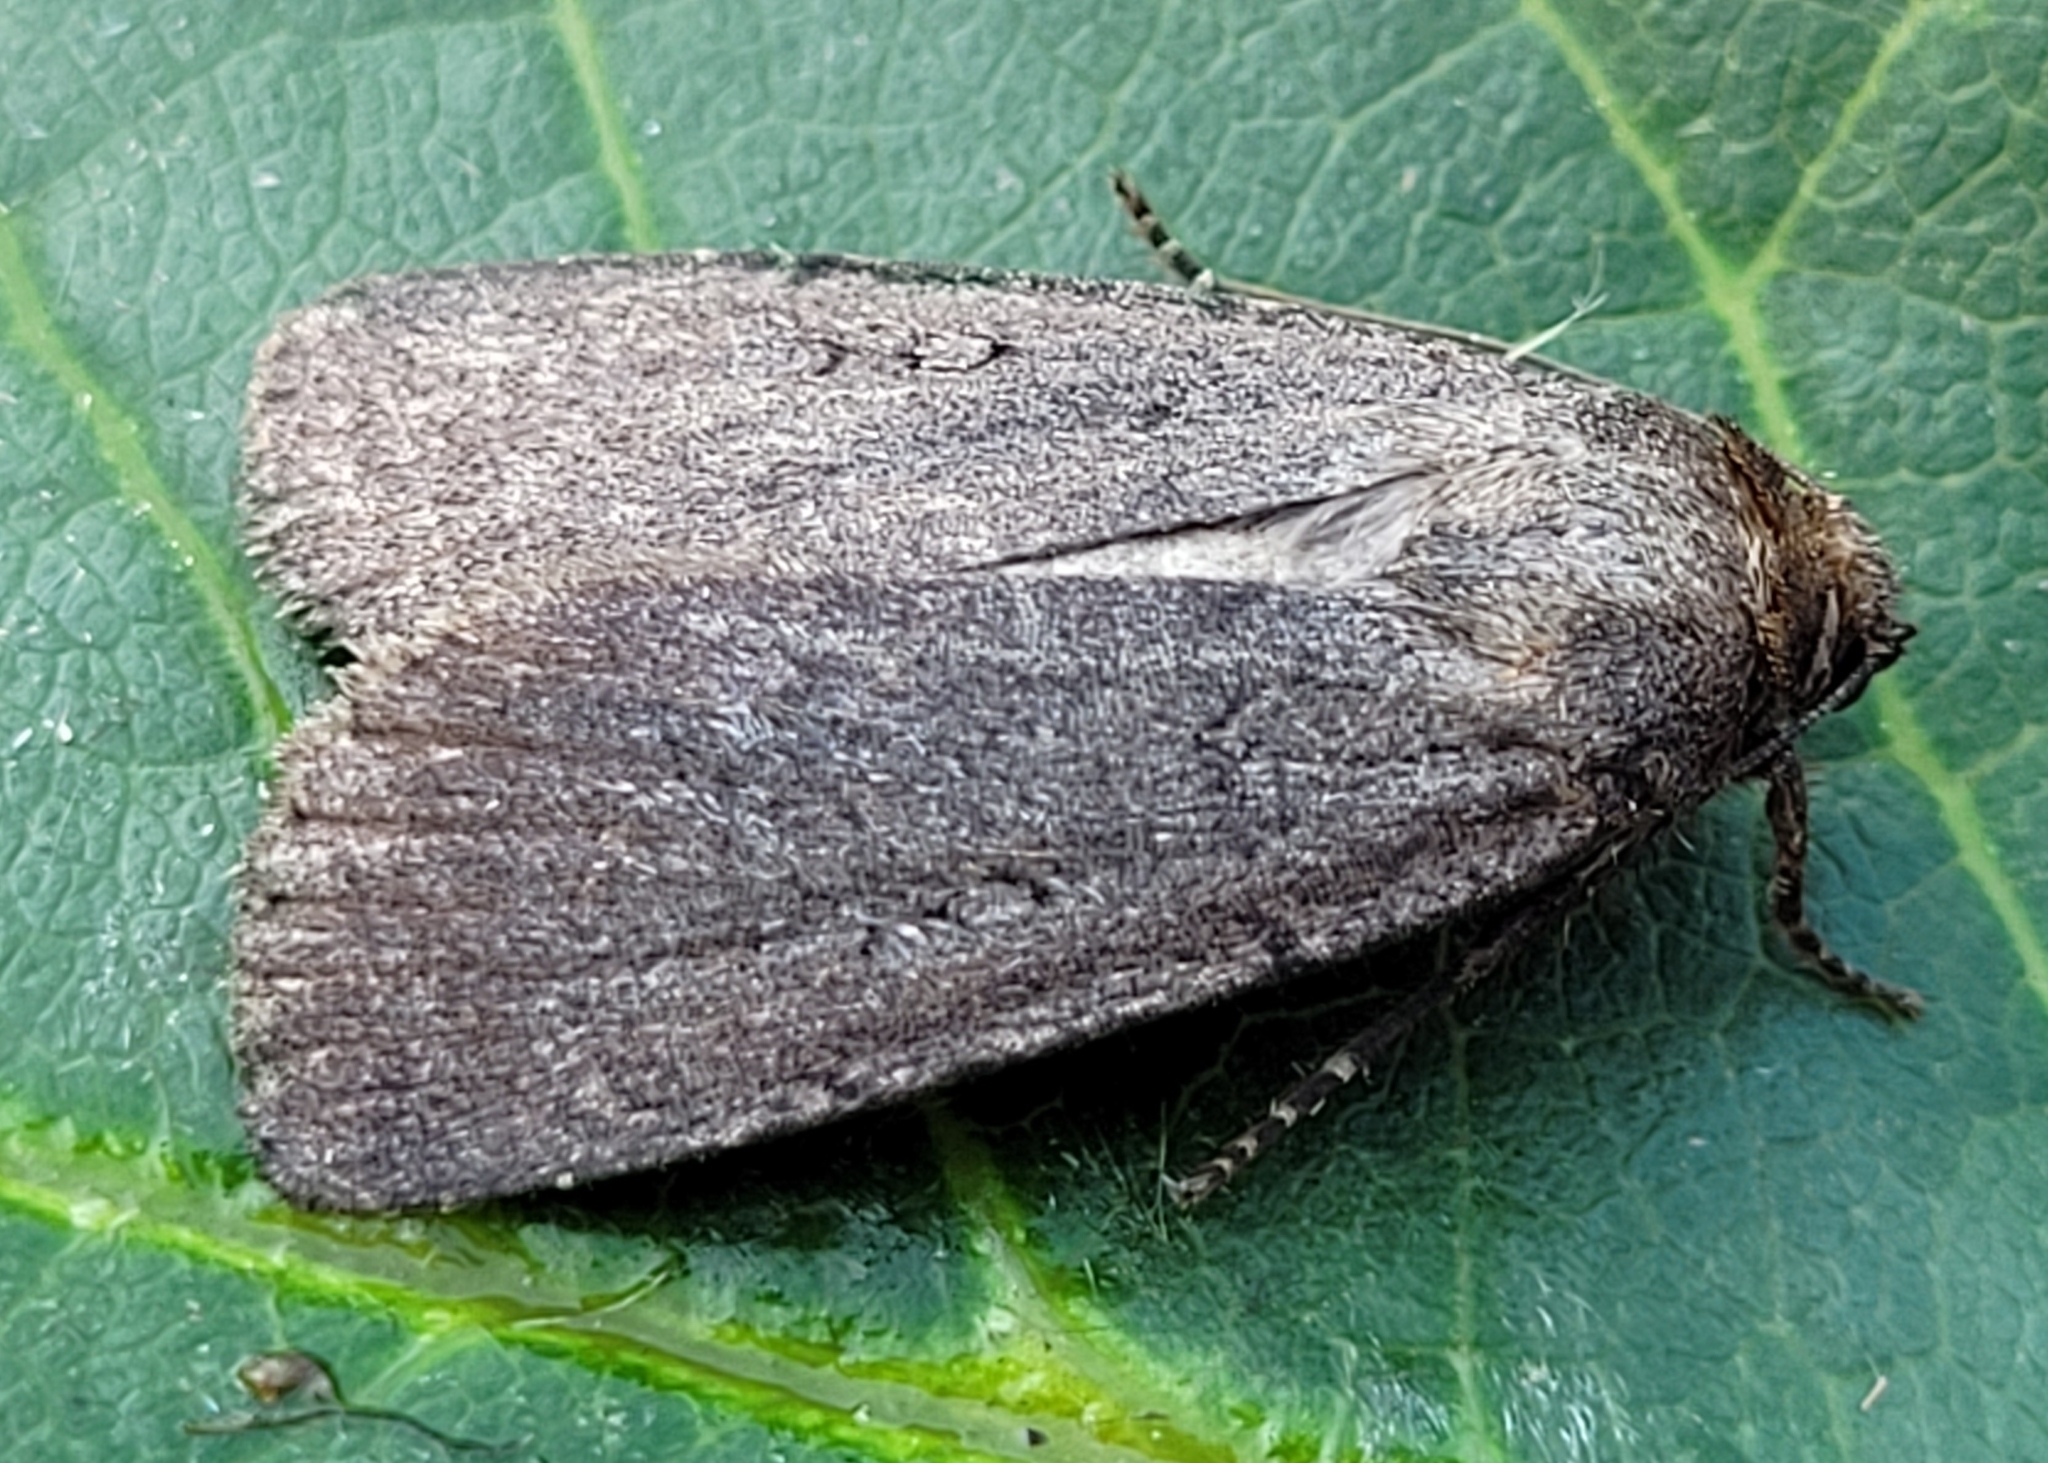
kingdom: Animalia
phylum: Arthropoda
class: Insecta
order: Lepidoptera
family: Noctuidae
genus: Spaelotis
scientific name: Spaelotis clandestina
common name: Clandestine dart
